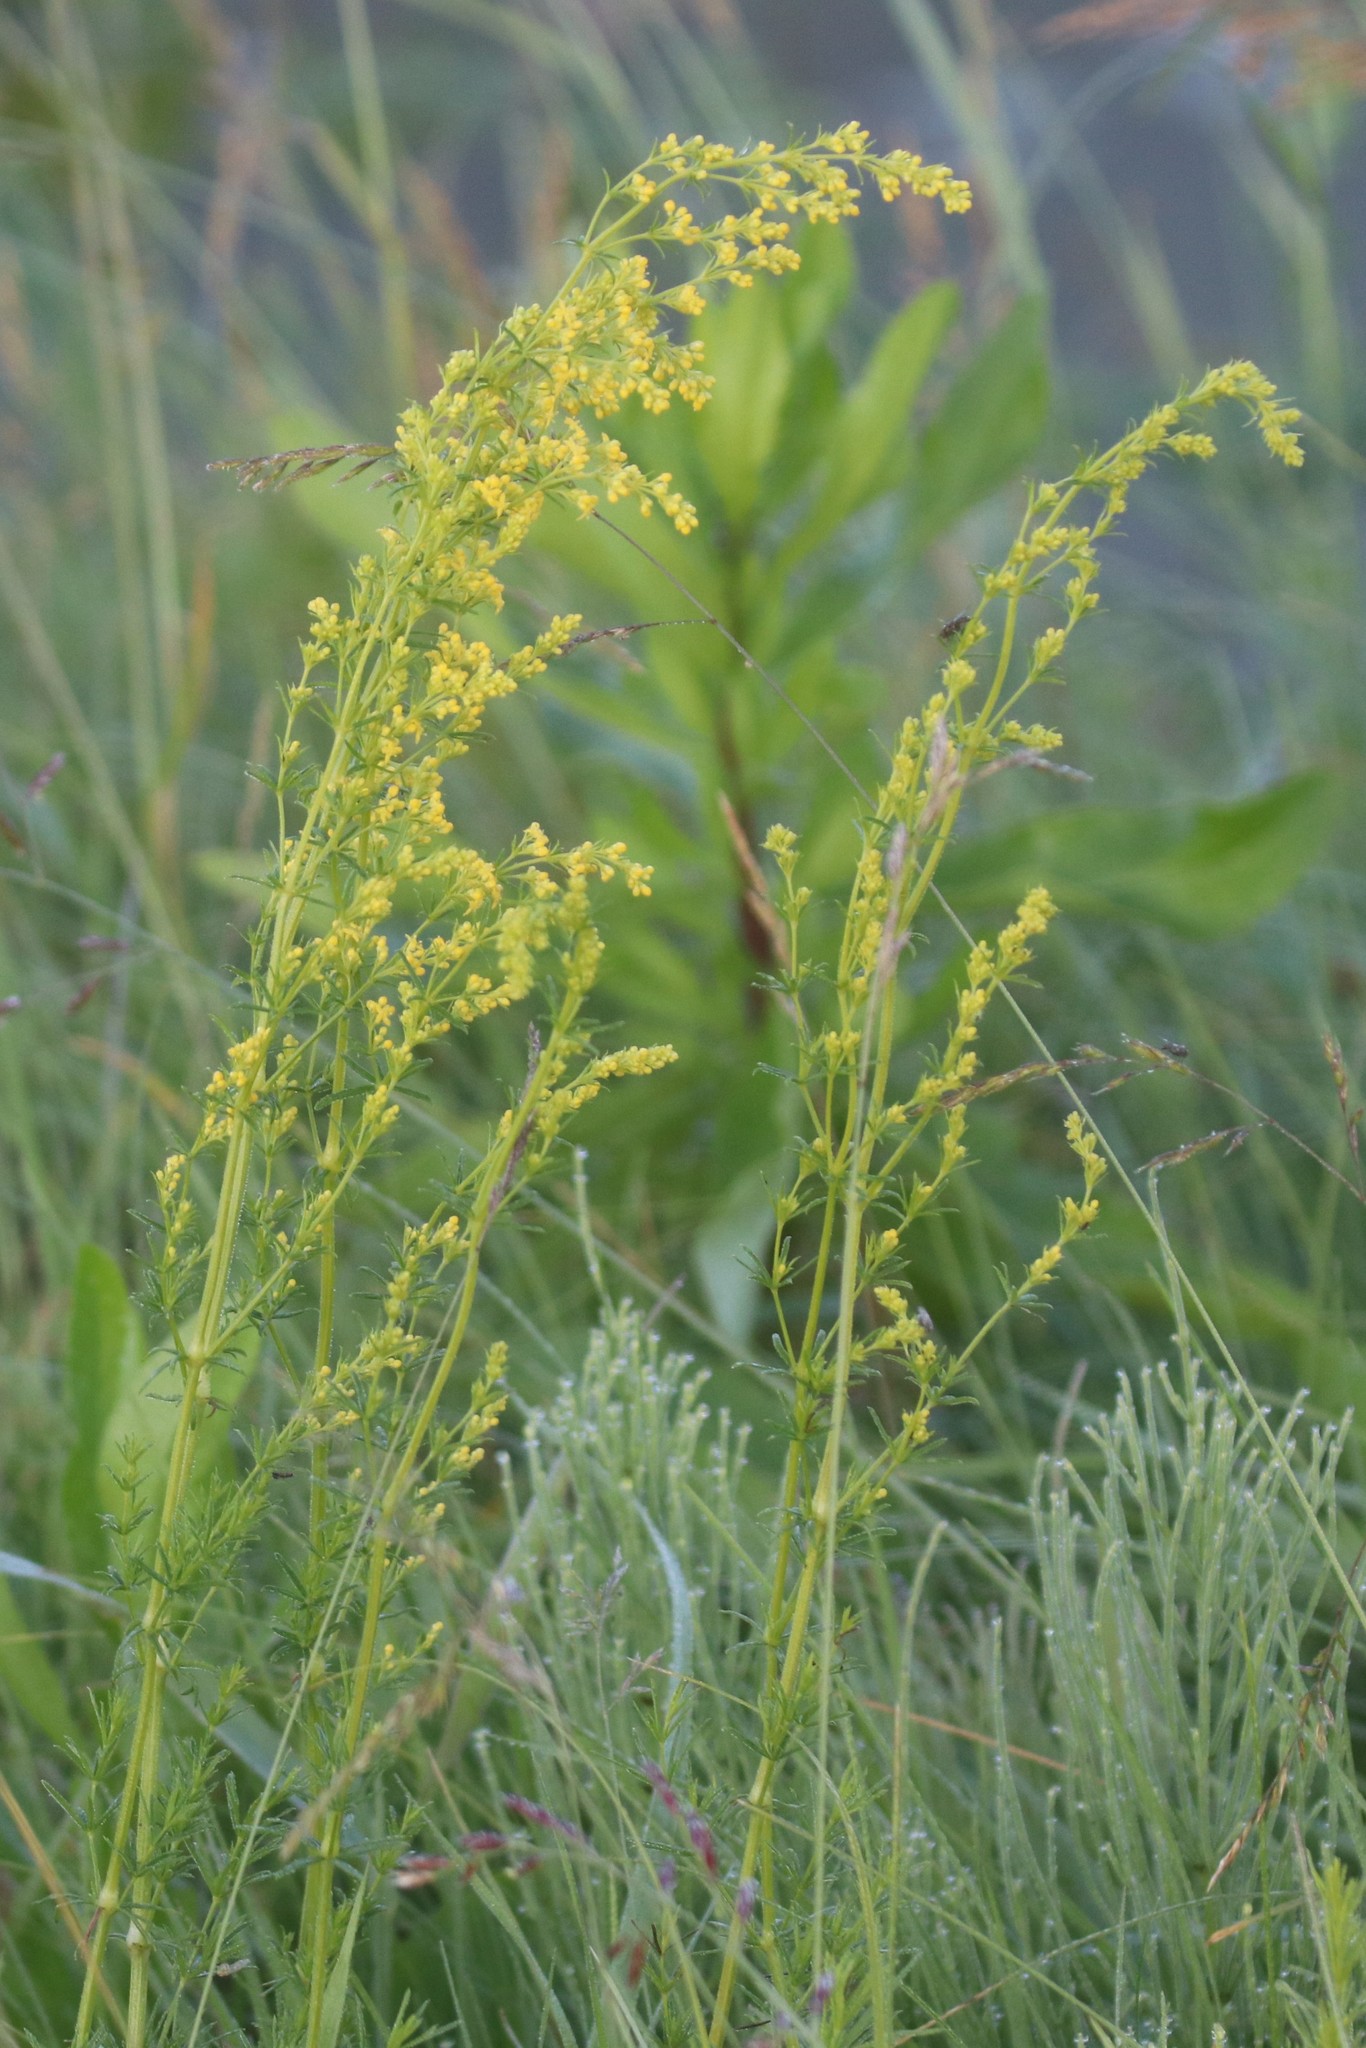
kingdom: Plantae
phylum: Tracheophyta
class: Magnoliopsida
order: Gentianales
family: Rubiaceae
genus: Galium
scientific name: Galium verum
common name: Lady's bedstraw
